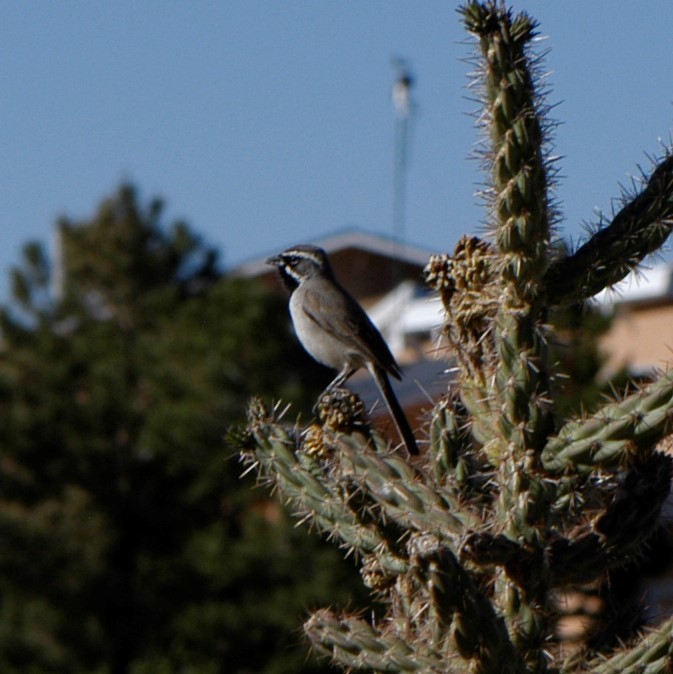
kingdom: Animalia
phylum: Chordata
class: Aves
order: Passeriformes
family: Passerellidae
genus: Amphispiza
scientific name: Amphispiza bilineata
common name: Black-throated sparrow
